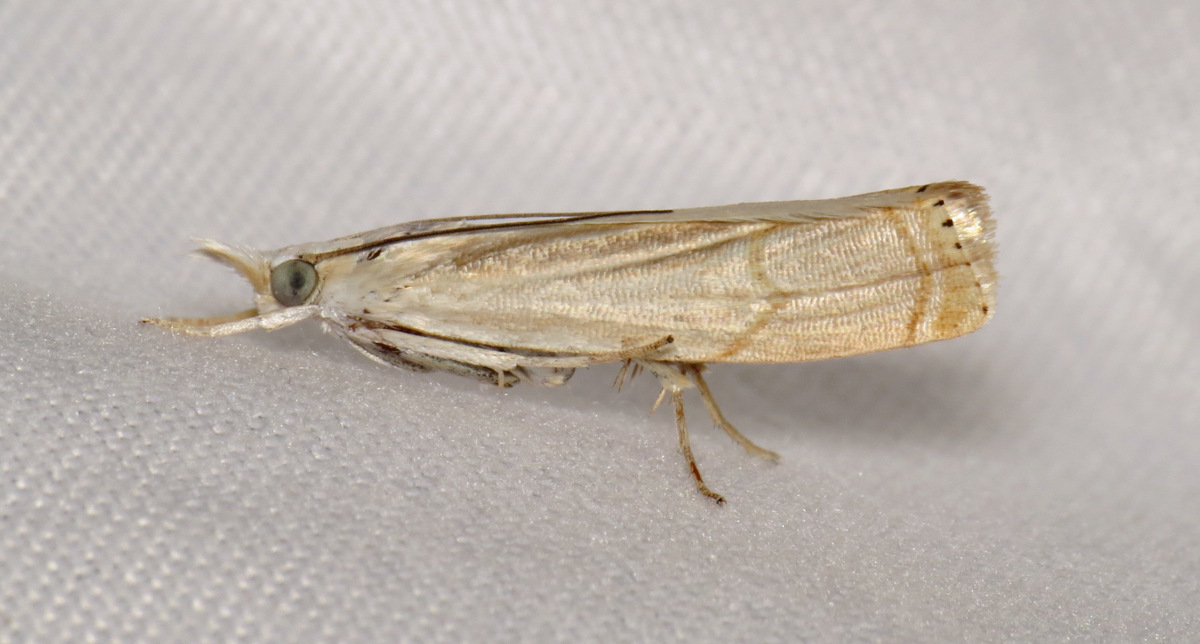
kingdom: Animalia
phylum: Arthropoda
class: Insecta
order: Lepidoptera
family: Crambidae
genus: Parapediasia
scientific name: Parapediasia decorellus
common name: Graceful grass-veneer
